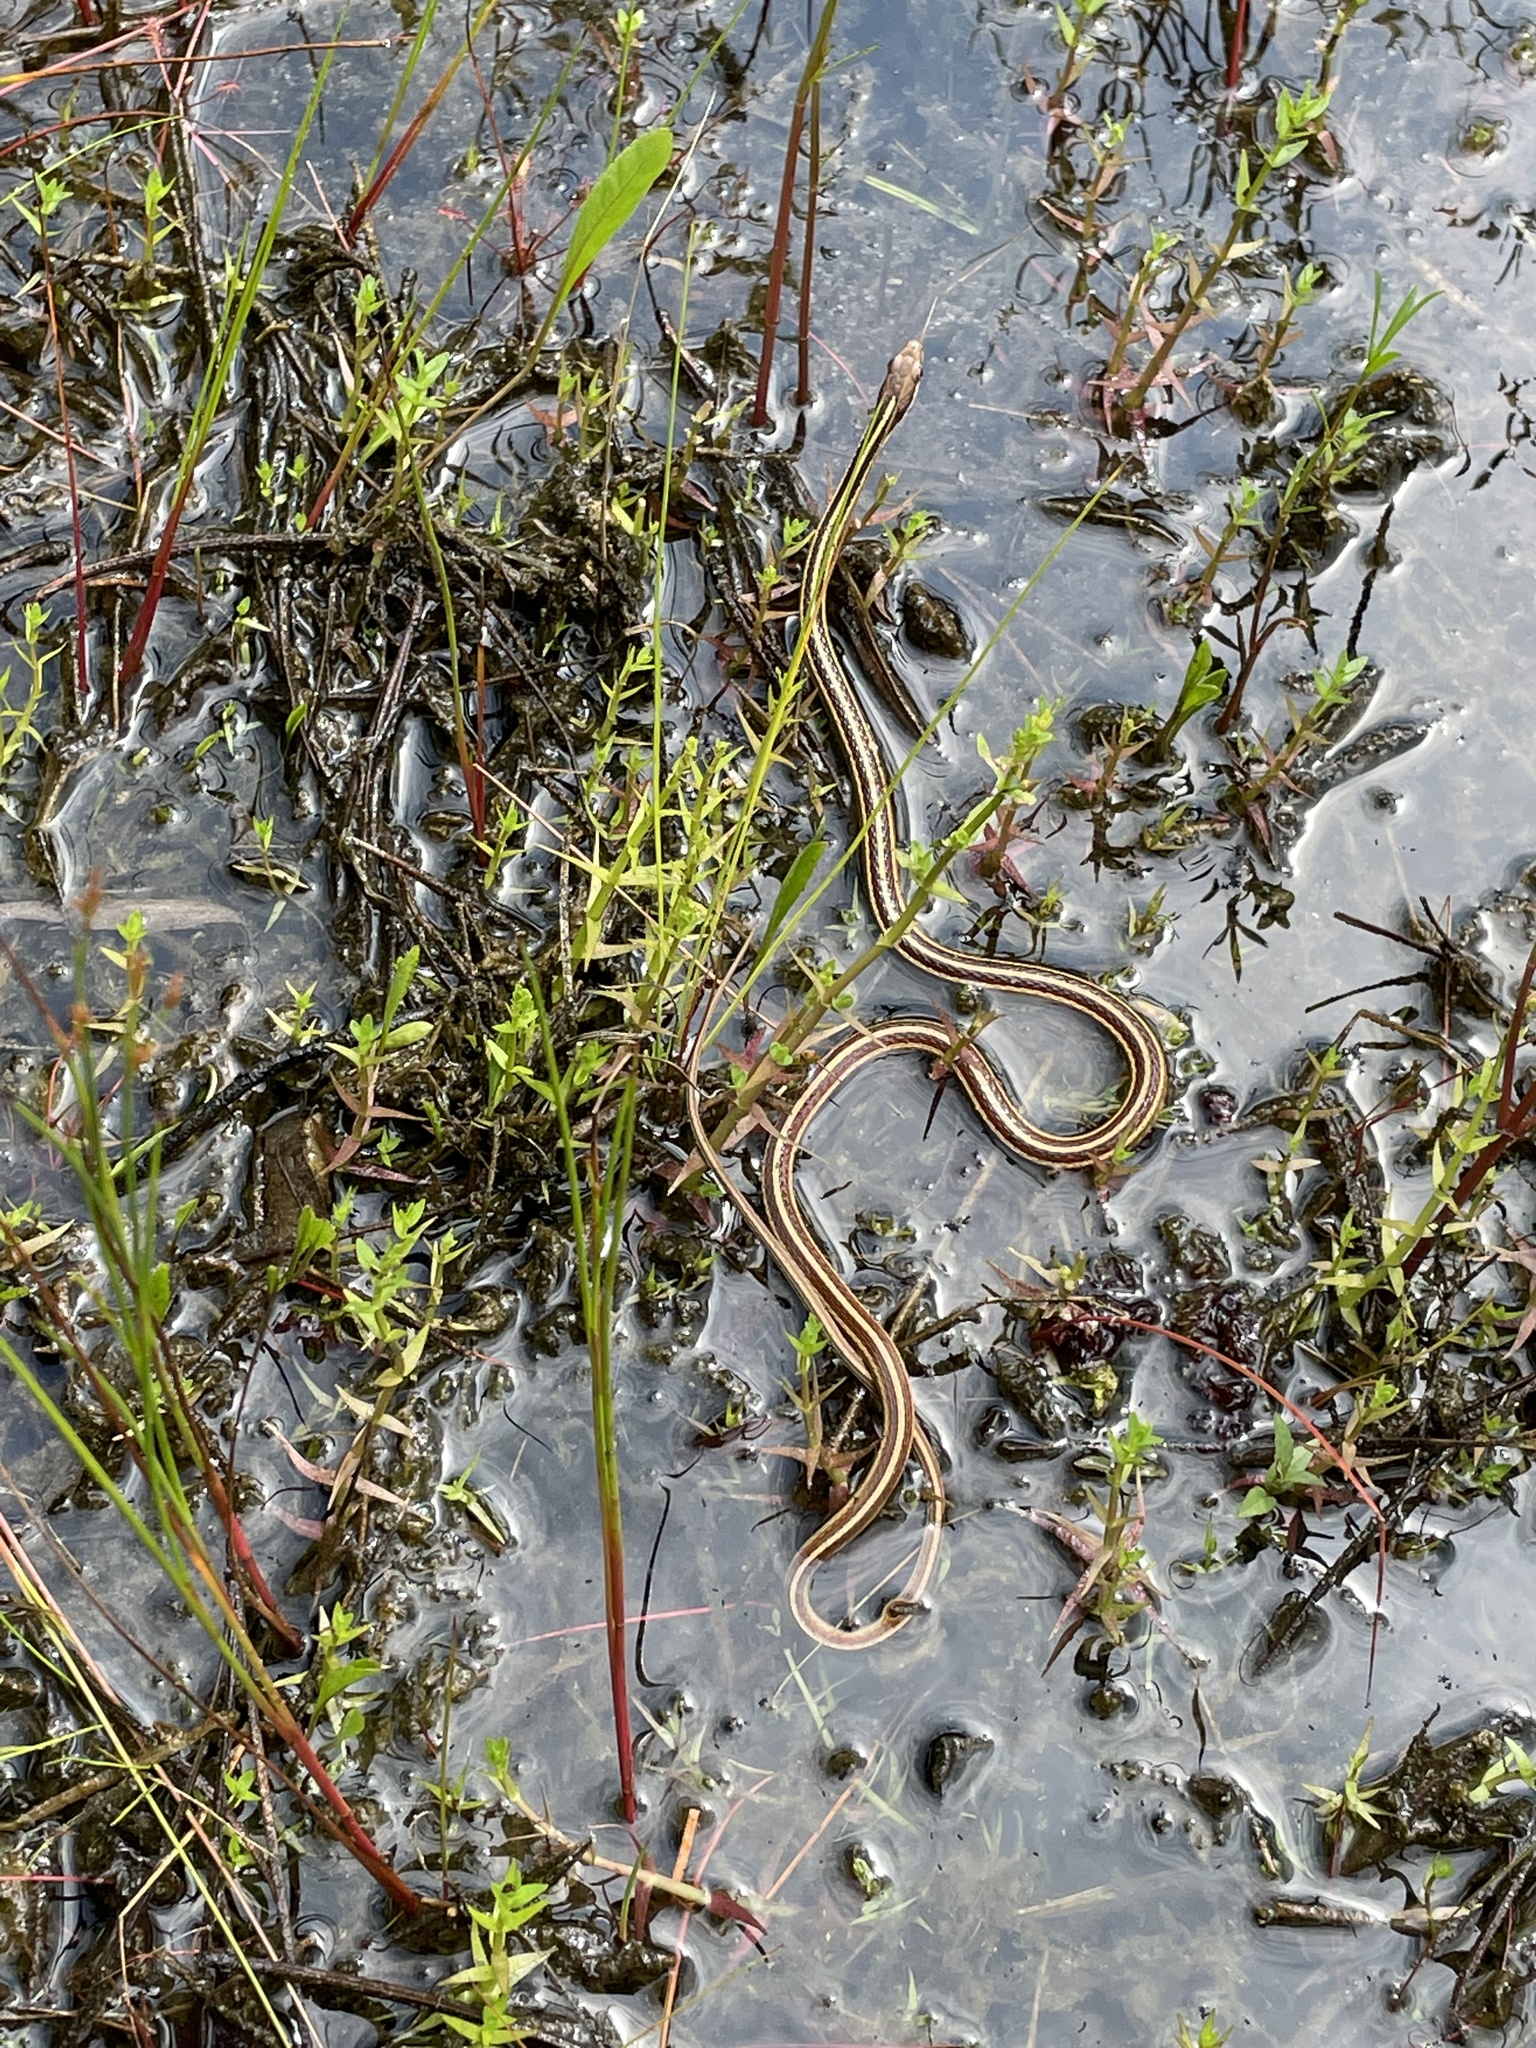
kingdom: Animalia
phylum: Chordata
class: Squamata
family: Colubridae
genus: Thamnophis
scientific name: Thamnophis saurita
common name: Eastern ribbonsnake
